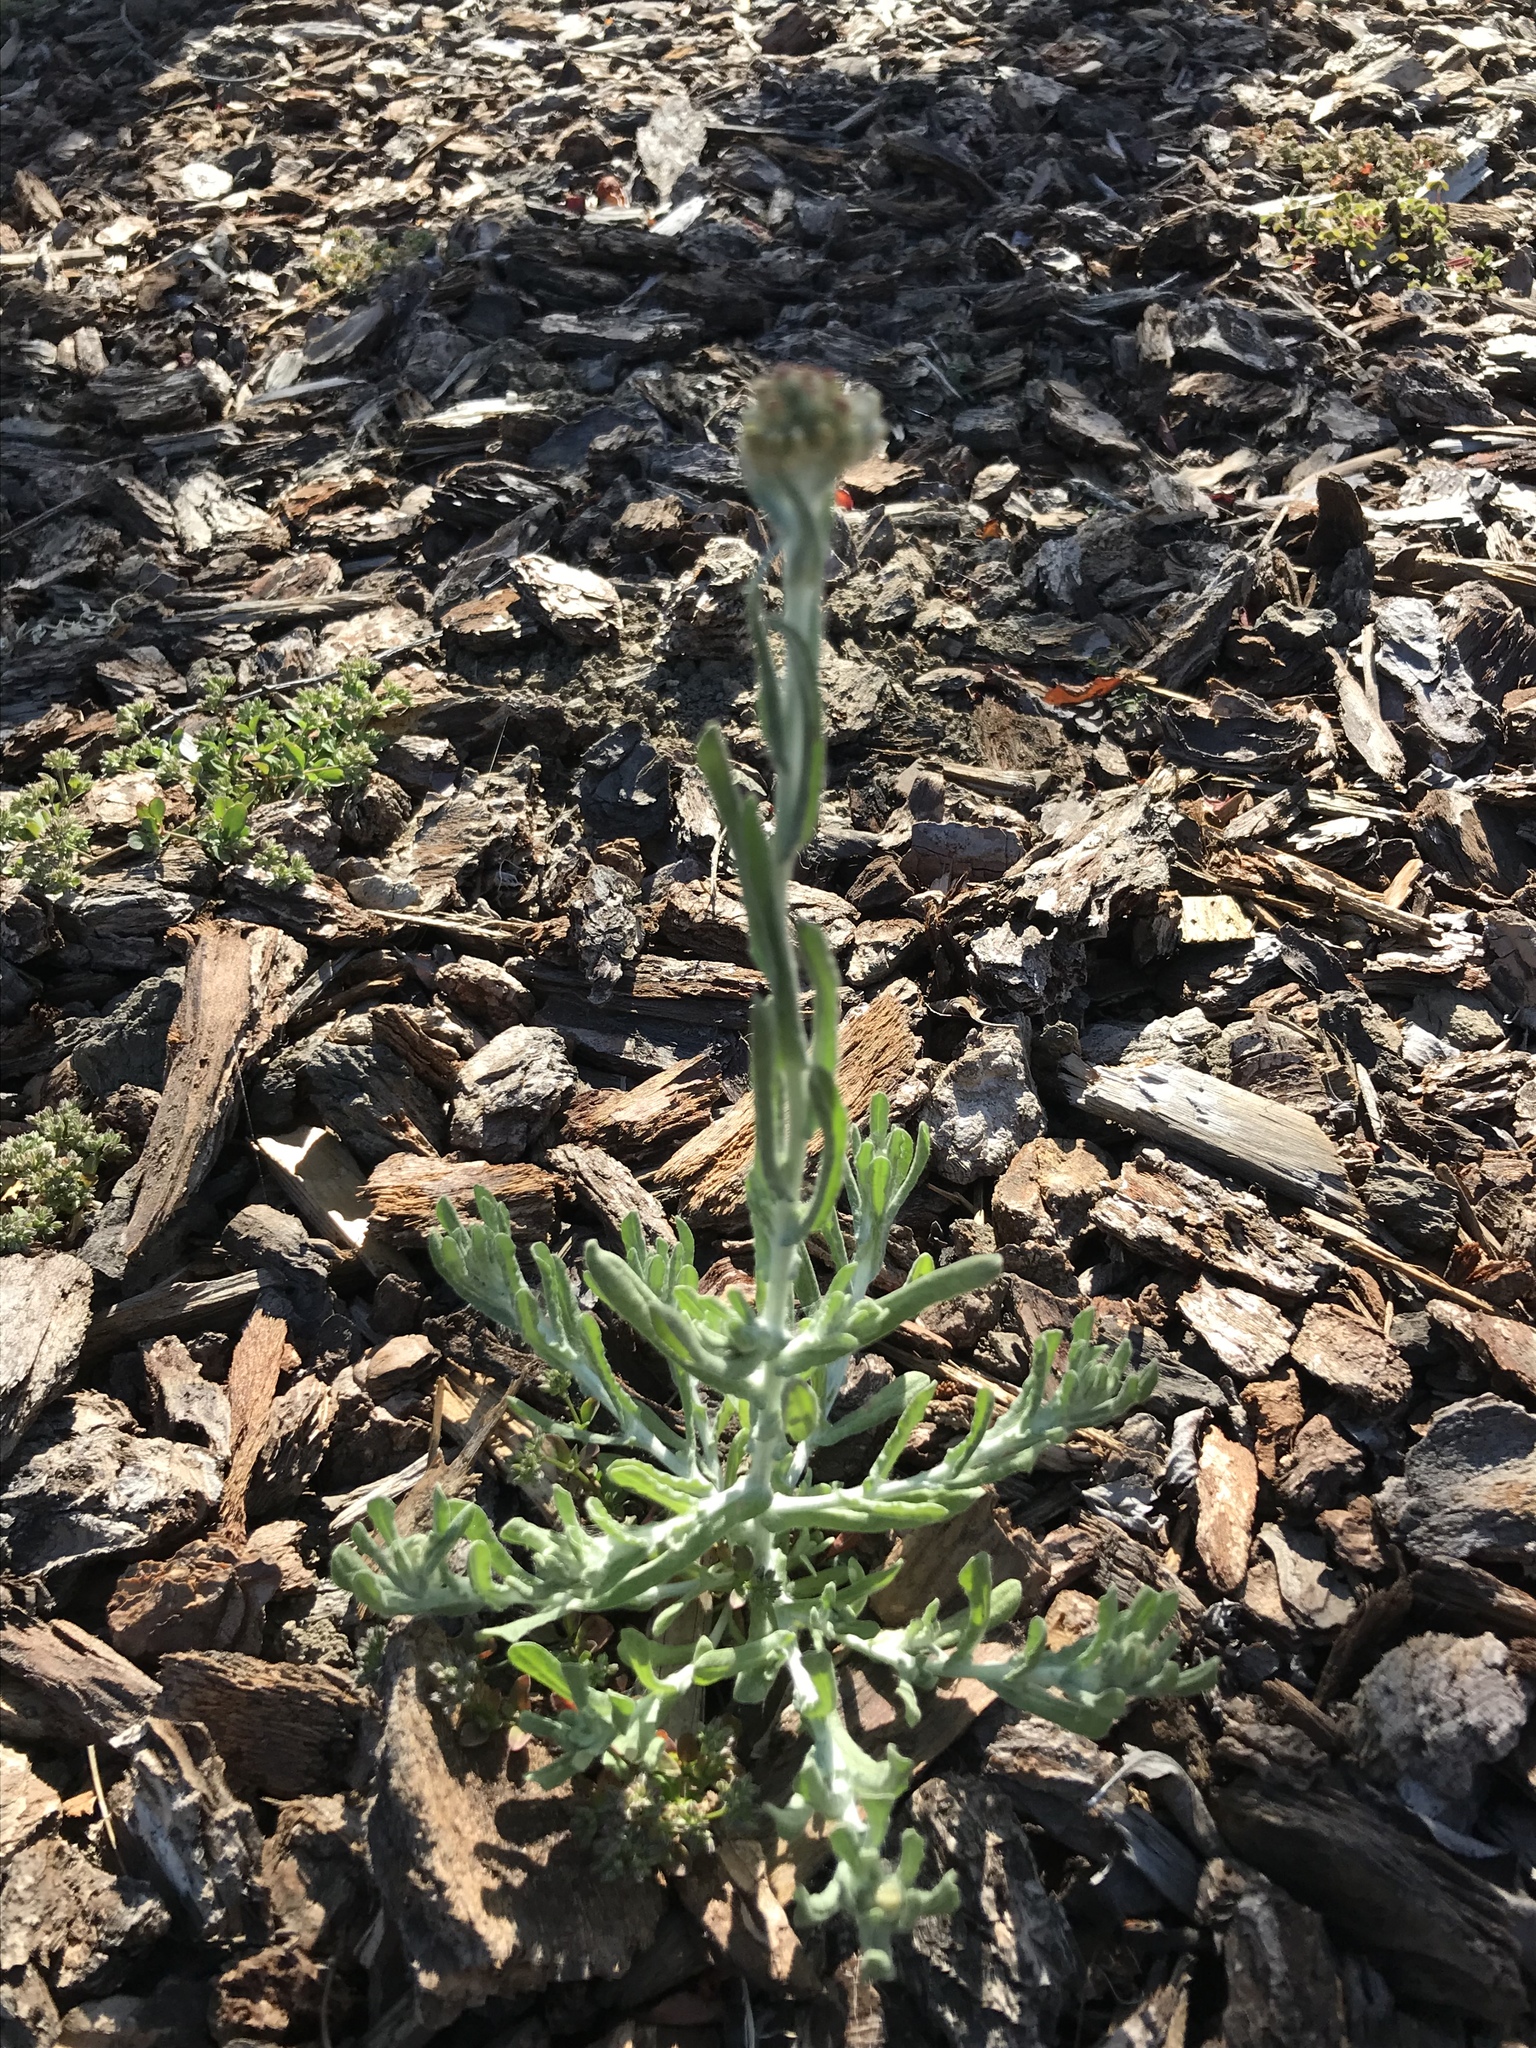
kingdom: Plantae
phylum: Tracheophyta
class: Magnoliopsida
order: Asterales
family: Asteraceae
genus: Helichrysum
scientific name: Helichrysum luteoalbum
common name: Daisy
